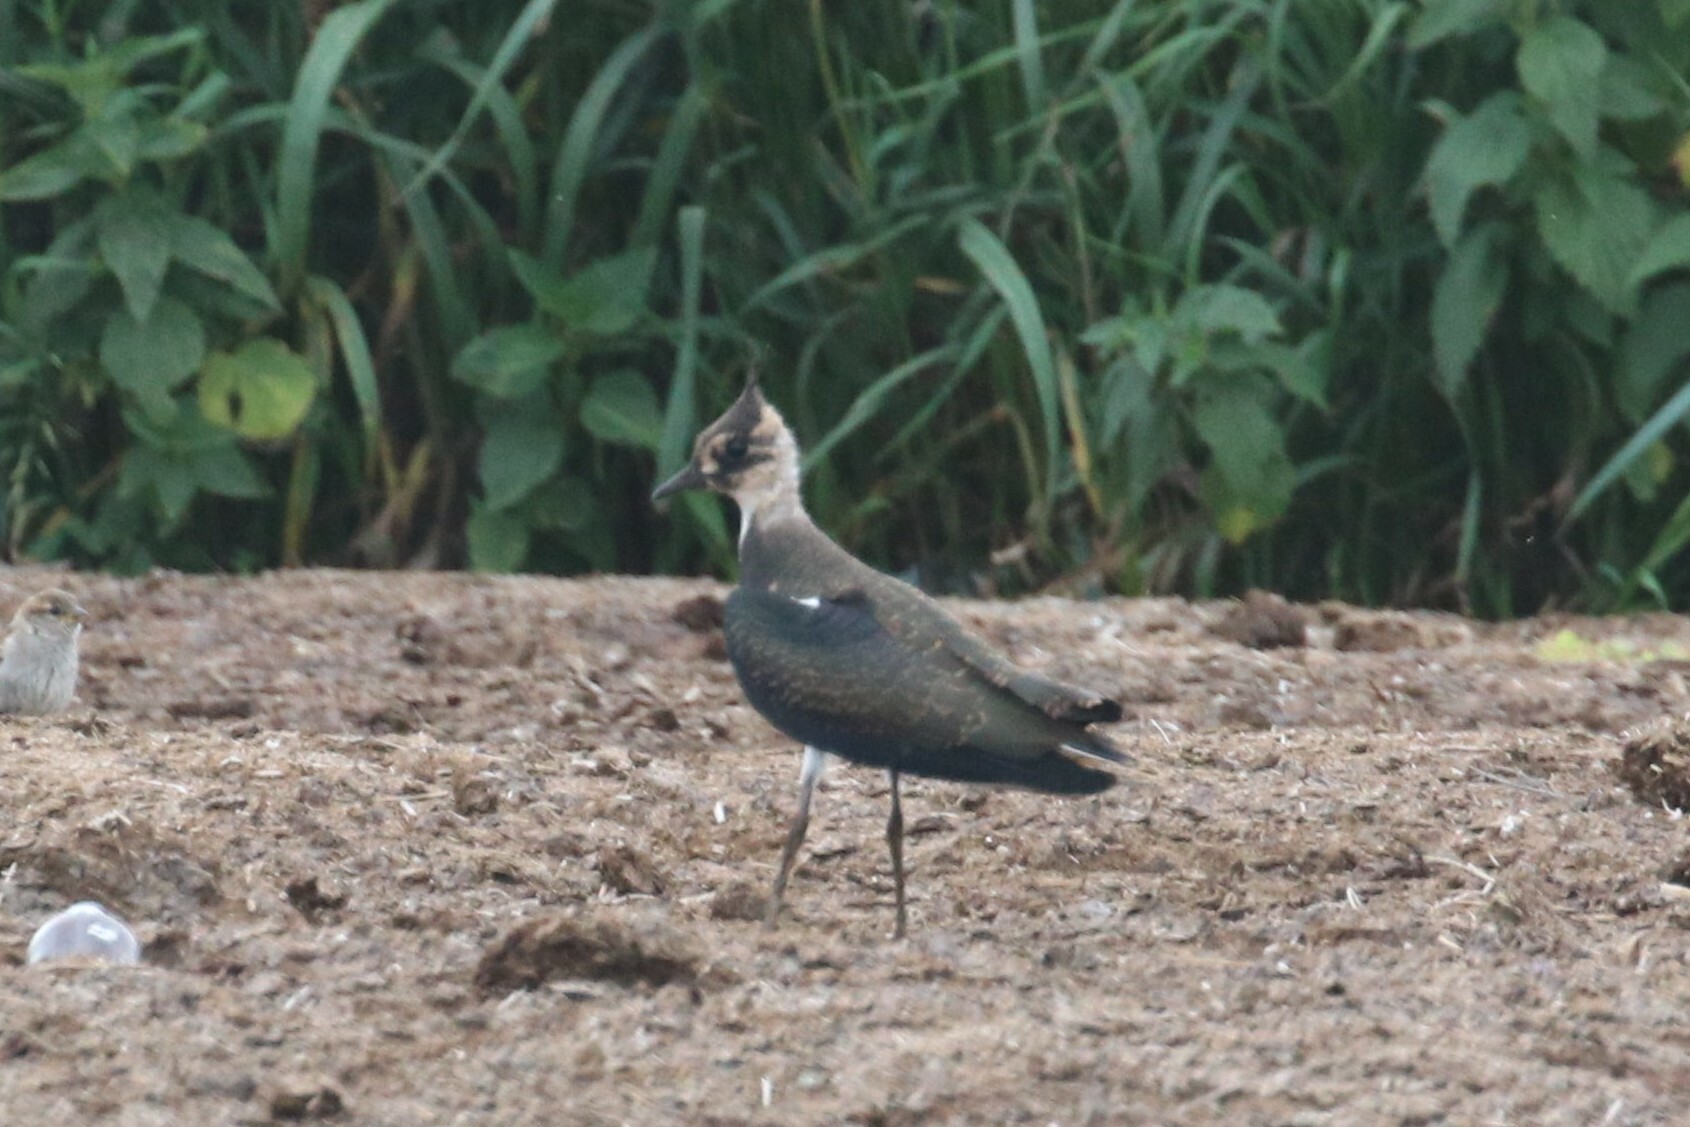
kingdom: Animalia
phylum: Chordata
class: Aves
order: Charadriiformes
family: Charadriidae
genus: Vanellus
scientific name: Vanellus vanellus
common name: Northern lapwing
